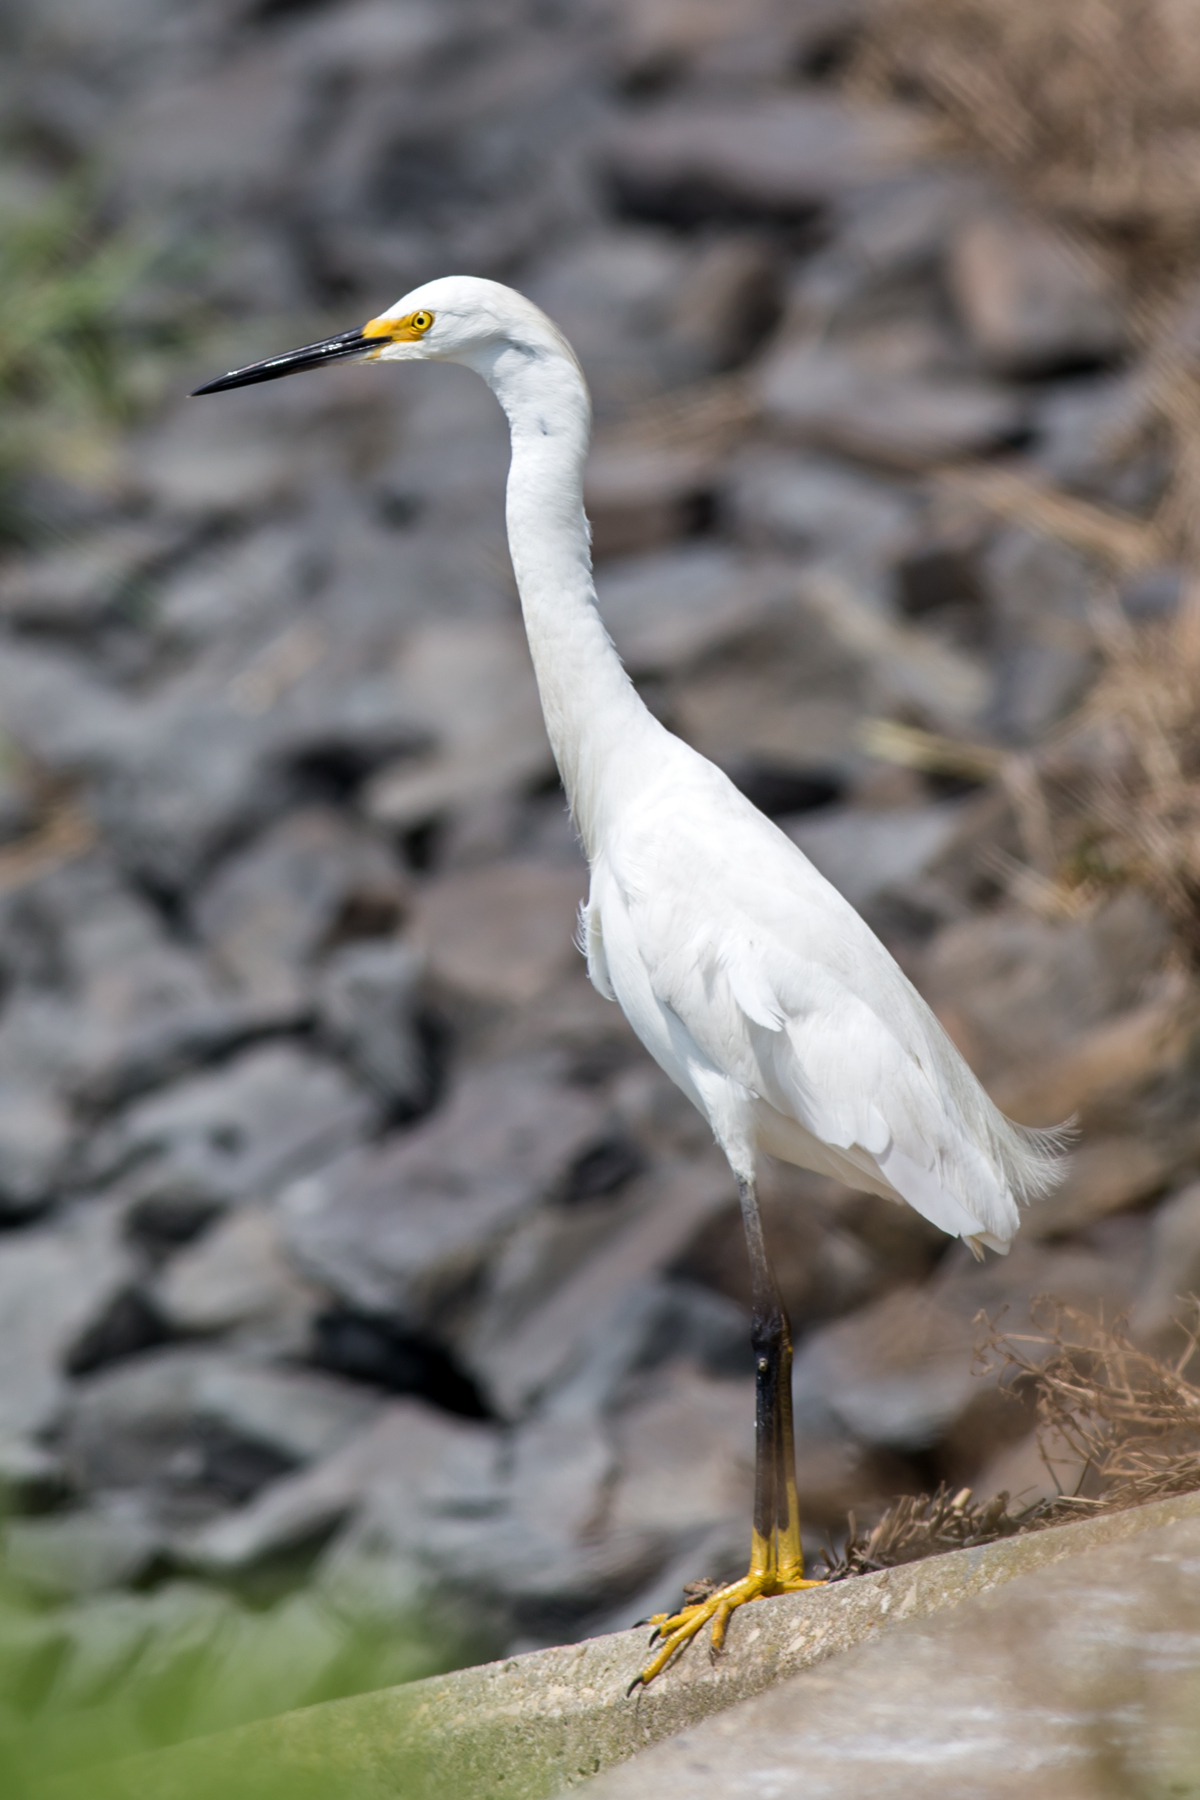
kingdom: Animalia
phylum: Chordata
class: Aves
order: Pelecaniformes
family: Ardeidae
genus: Egretta
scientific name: Egretta thula
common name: Snowy egret
